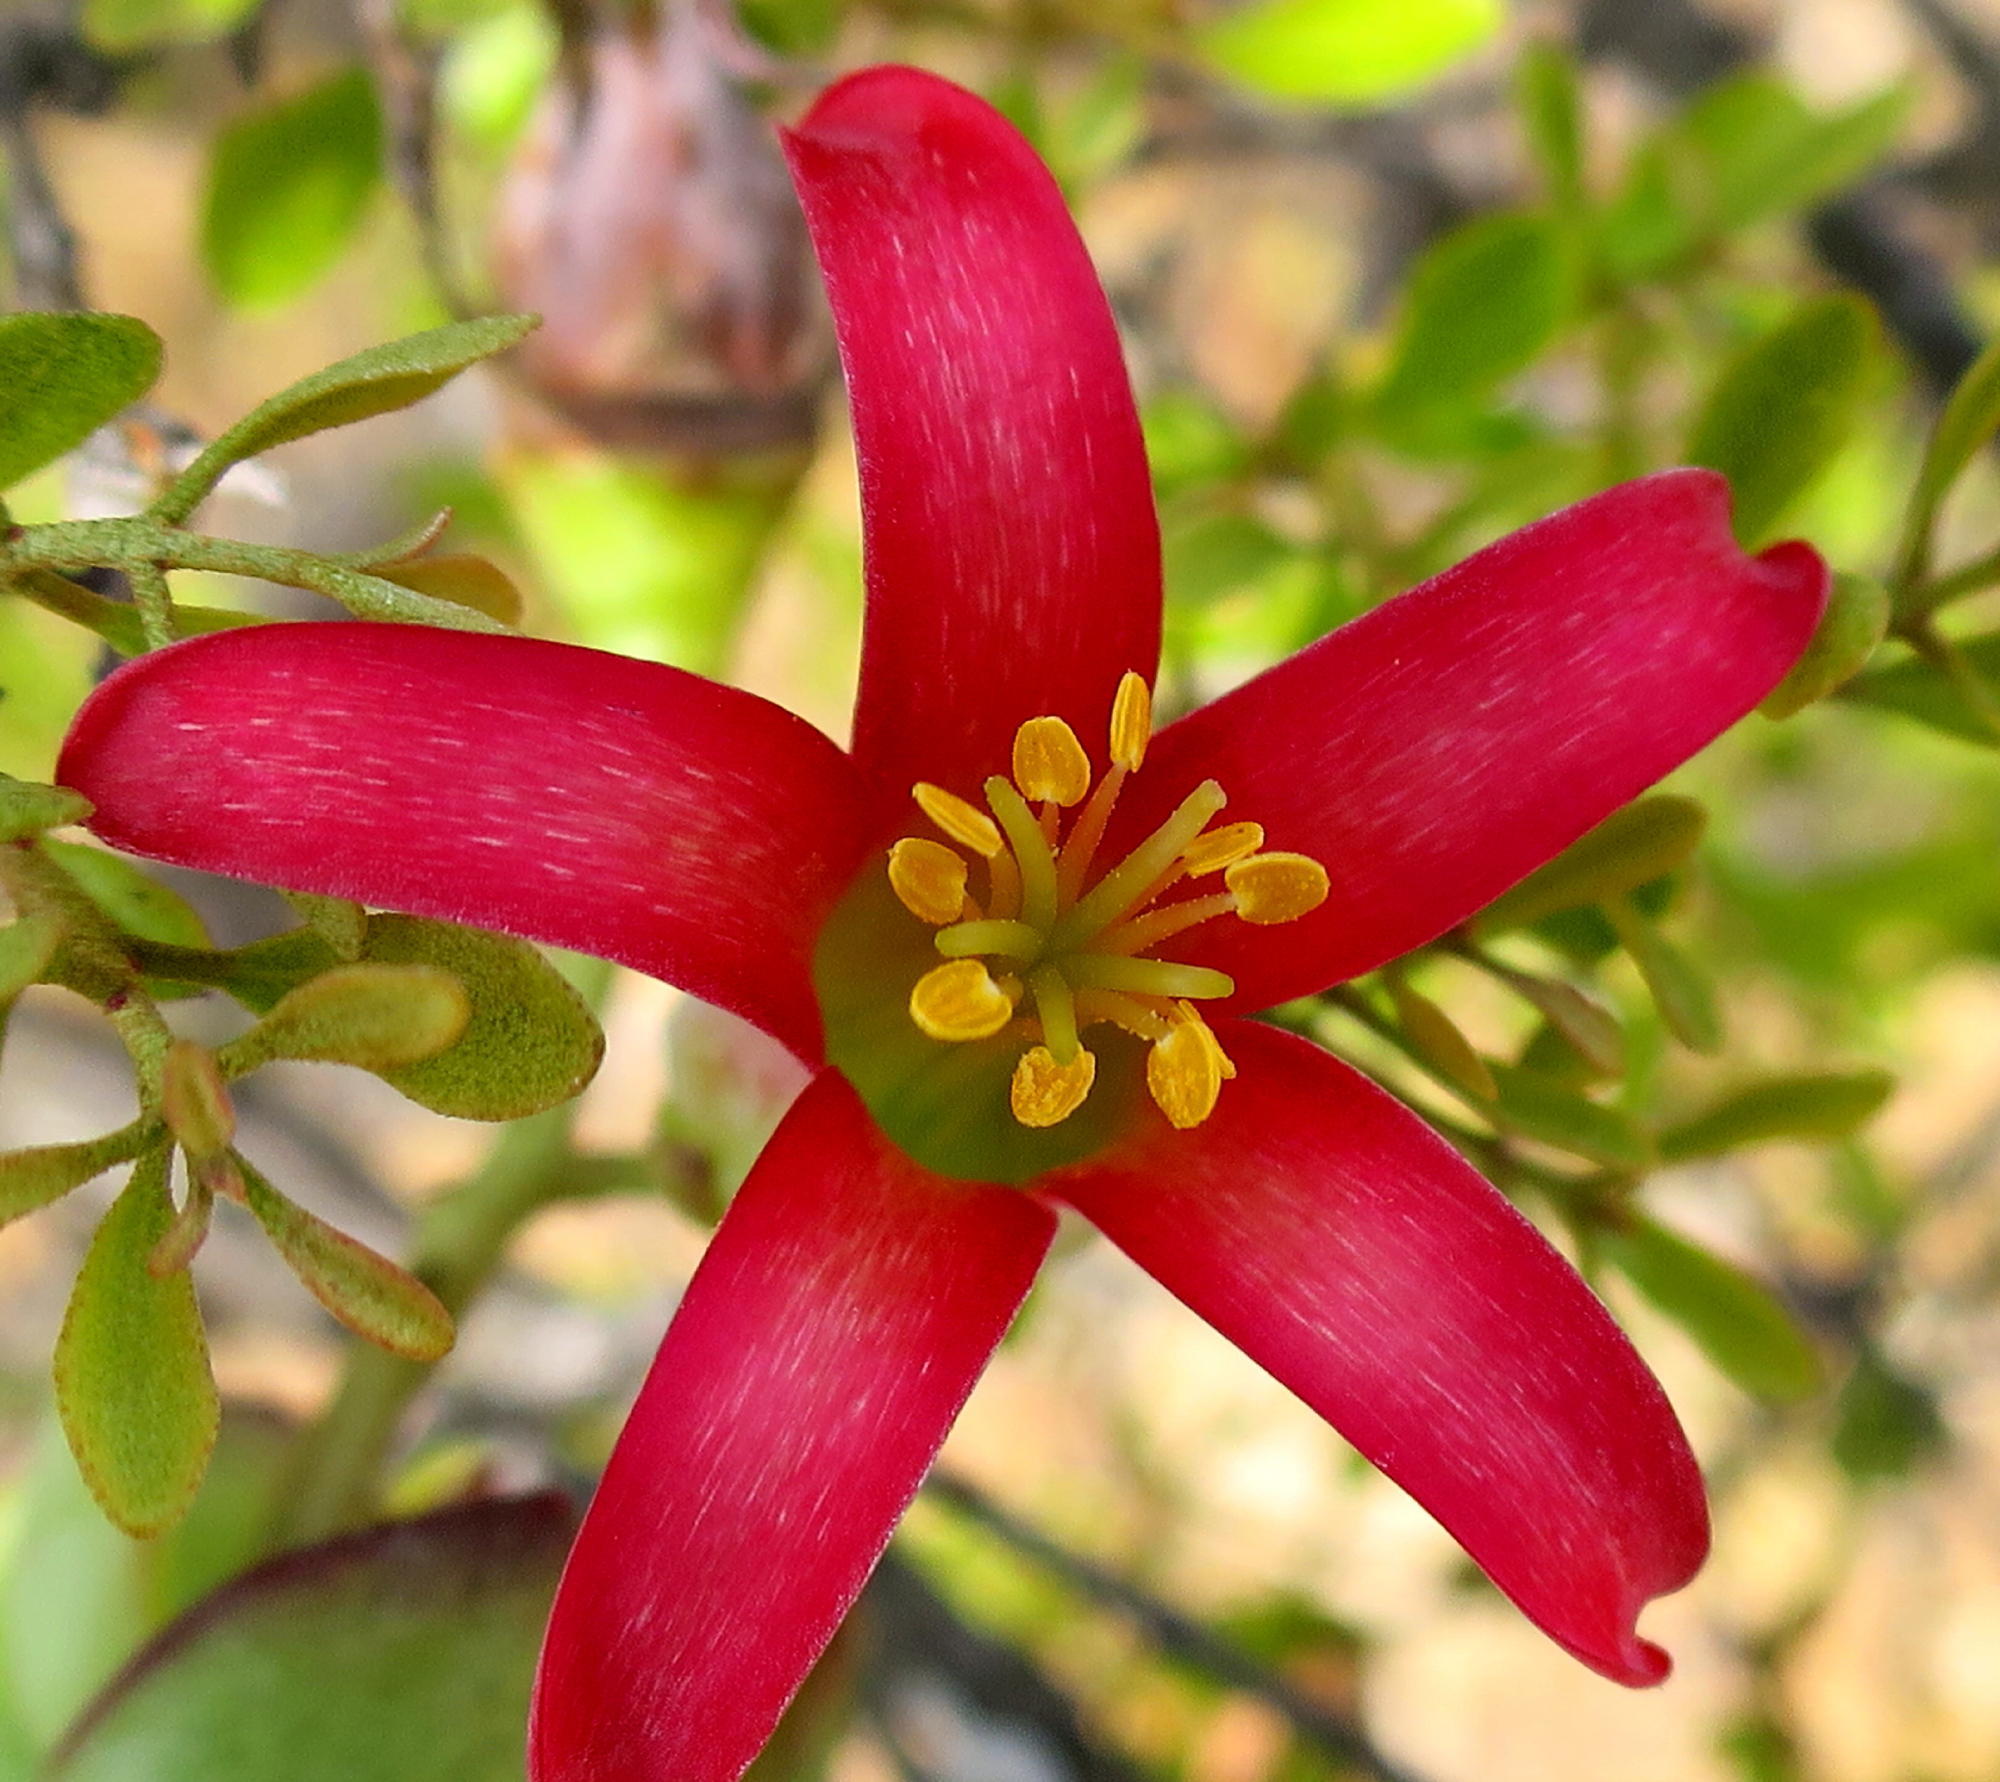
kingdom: Plantae
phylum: Tracheophyta
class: Magnoliopsida
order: Saxifragales
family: Crassulaceae
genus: Cotyledon
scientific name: Cotyledon woodii
